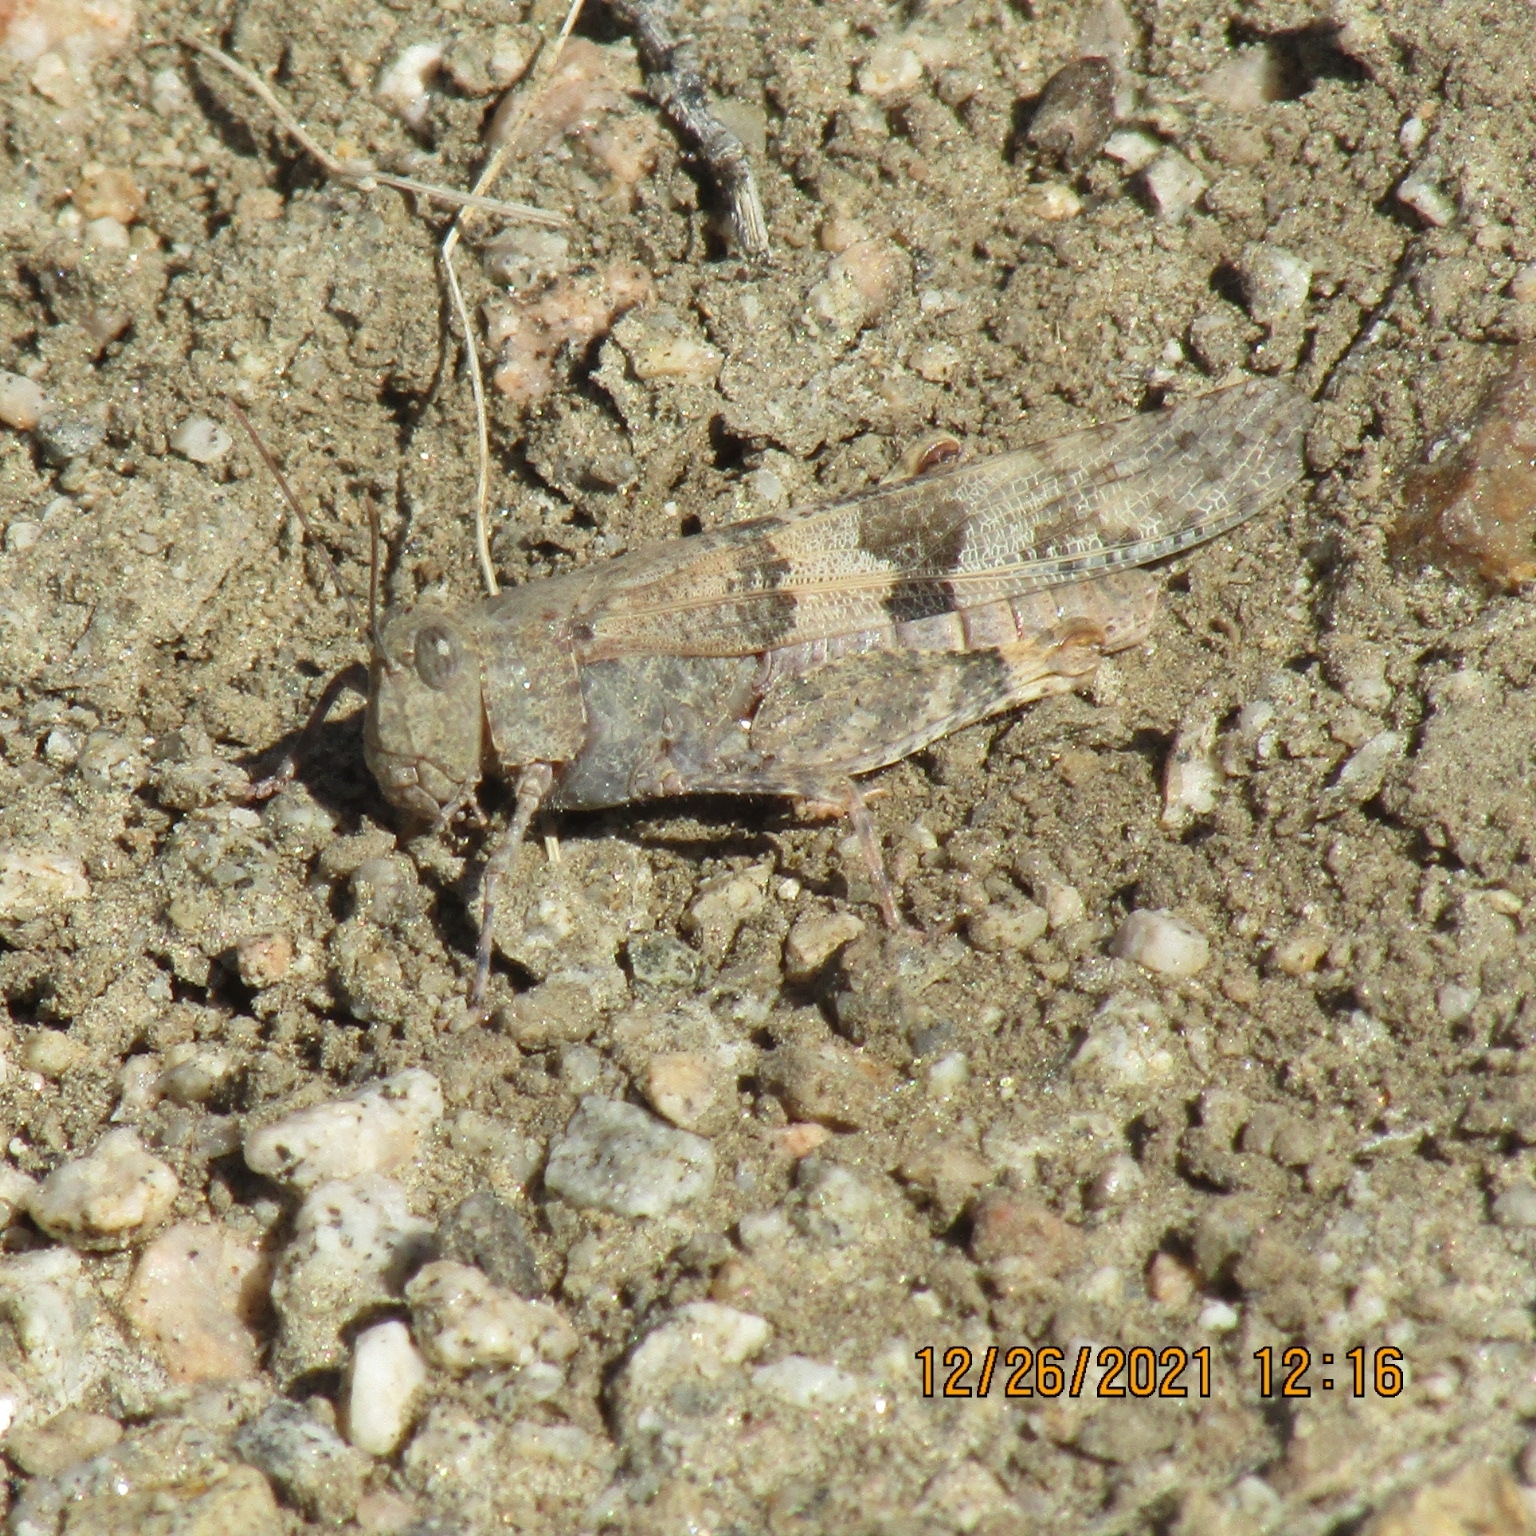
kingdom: Animalia
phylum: Arthropoda
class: Insecta
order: Orthoptera
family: Acrididae
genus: Trimerotropis
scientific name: Trimerotropis pallidipennis
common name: Pallid-winged grasshopper
